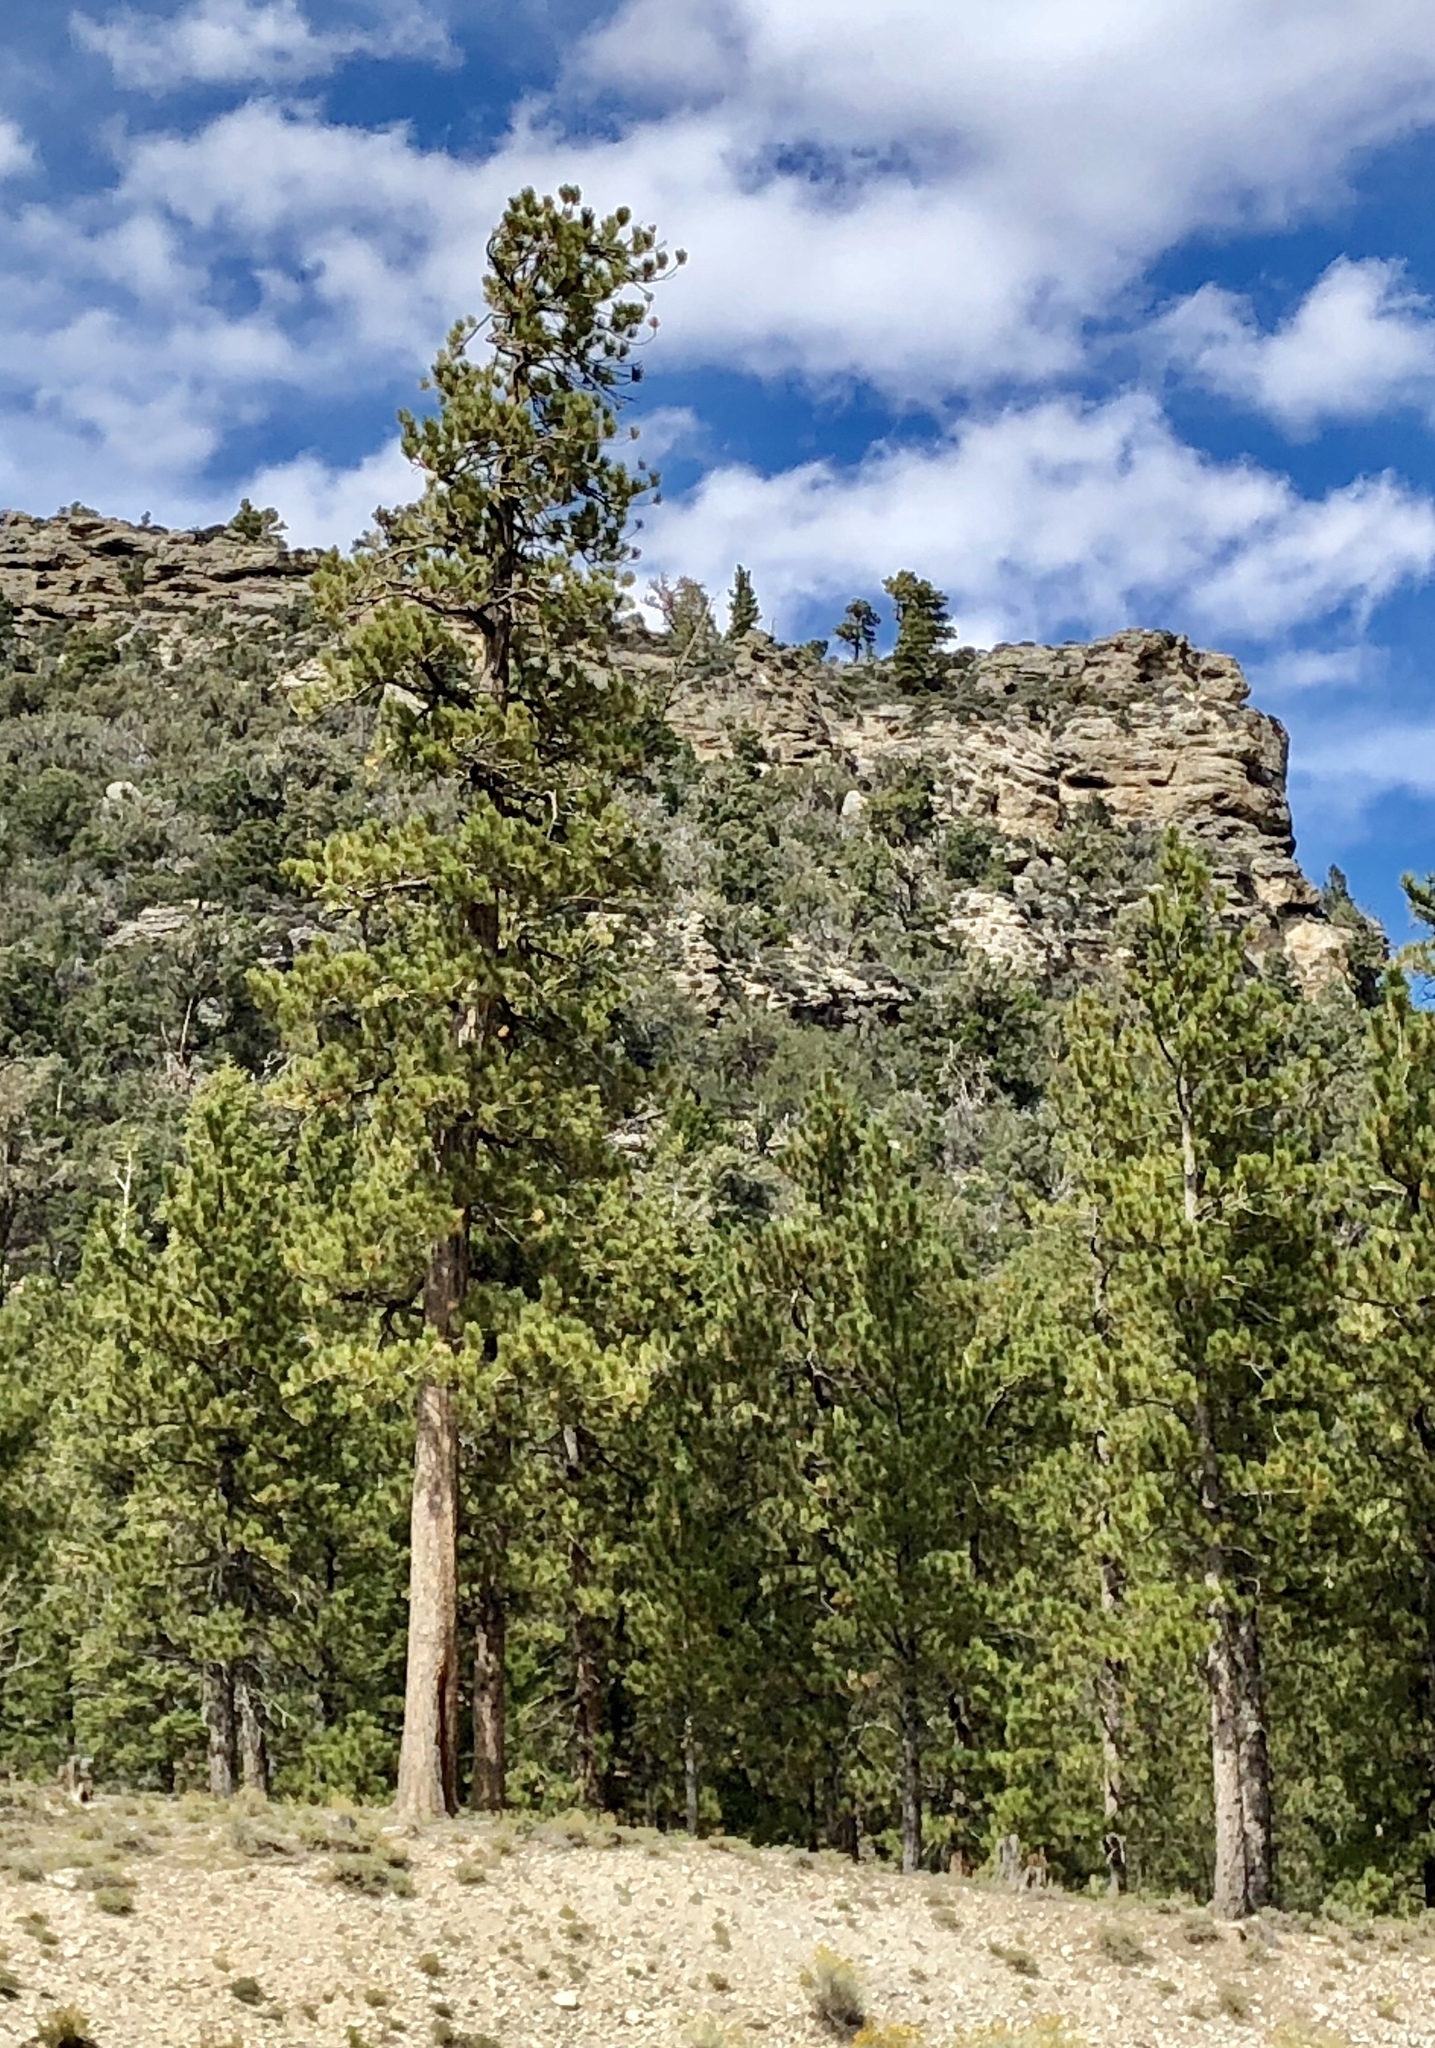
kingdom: Plantae
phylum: Tracheophyta
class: Pinopsida
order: Pinales
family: Pinaceae
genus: Pinus
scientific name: Pinus ponderosa
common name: Western yellow-pine
